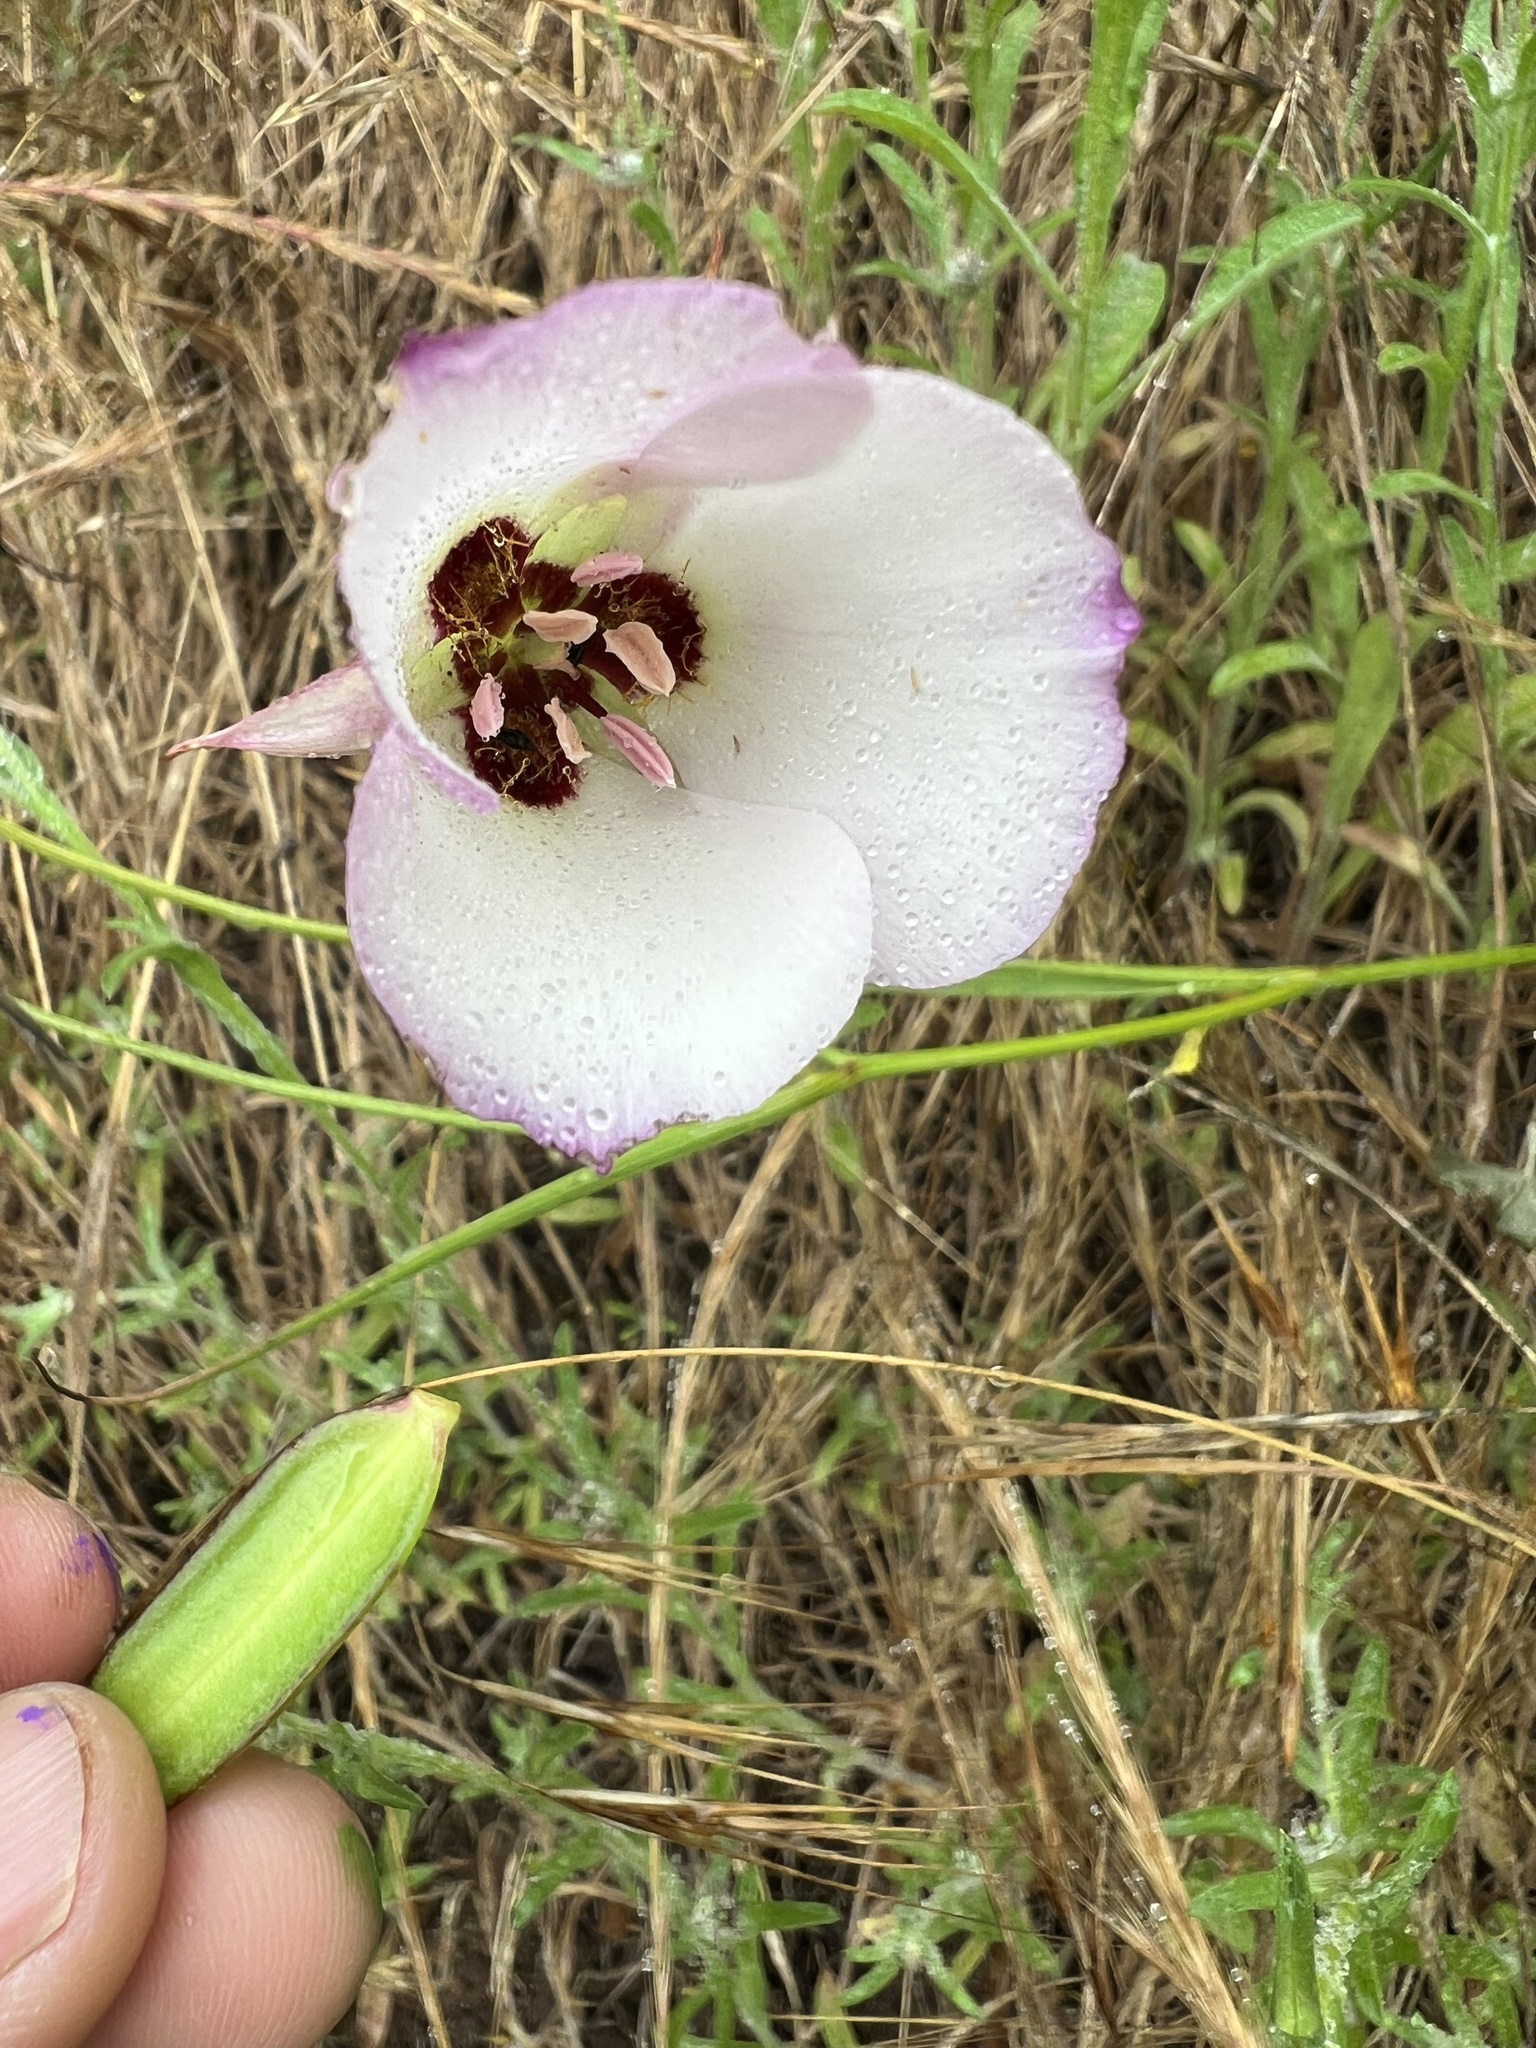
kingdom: Plantae
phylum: Tracheophyta
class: Liliopsida
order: Liliales
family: Liliaceae
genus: Calochortus
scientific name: Calochortus catalinae
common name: Catalina mariposa-lily
